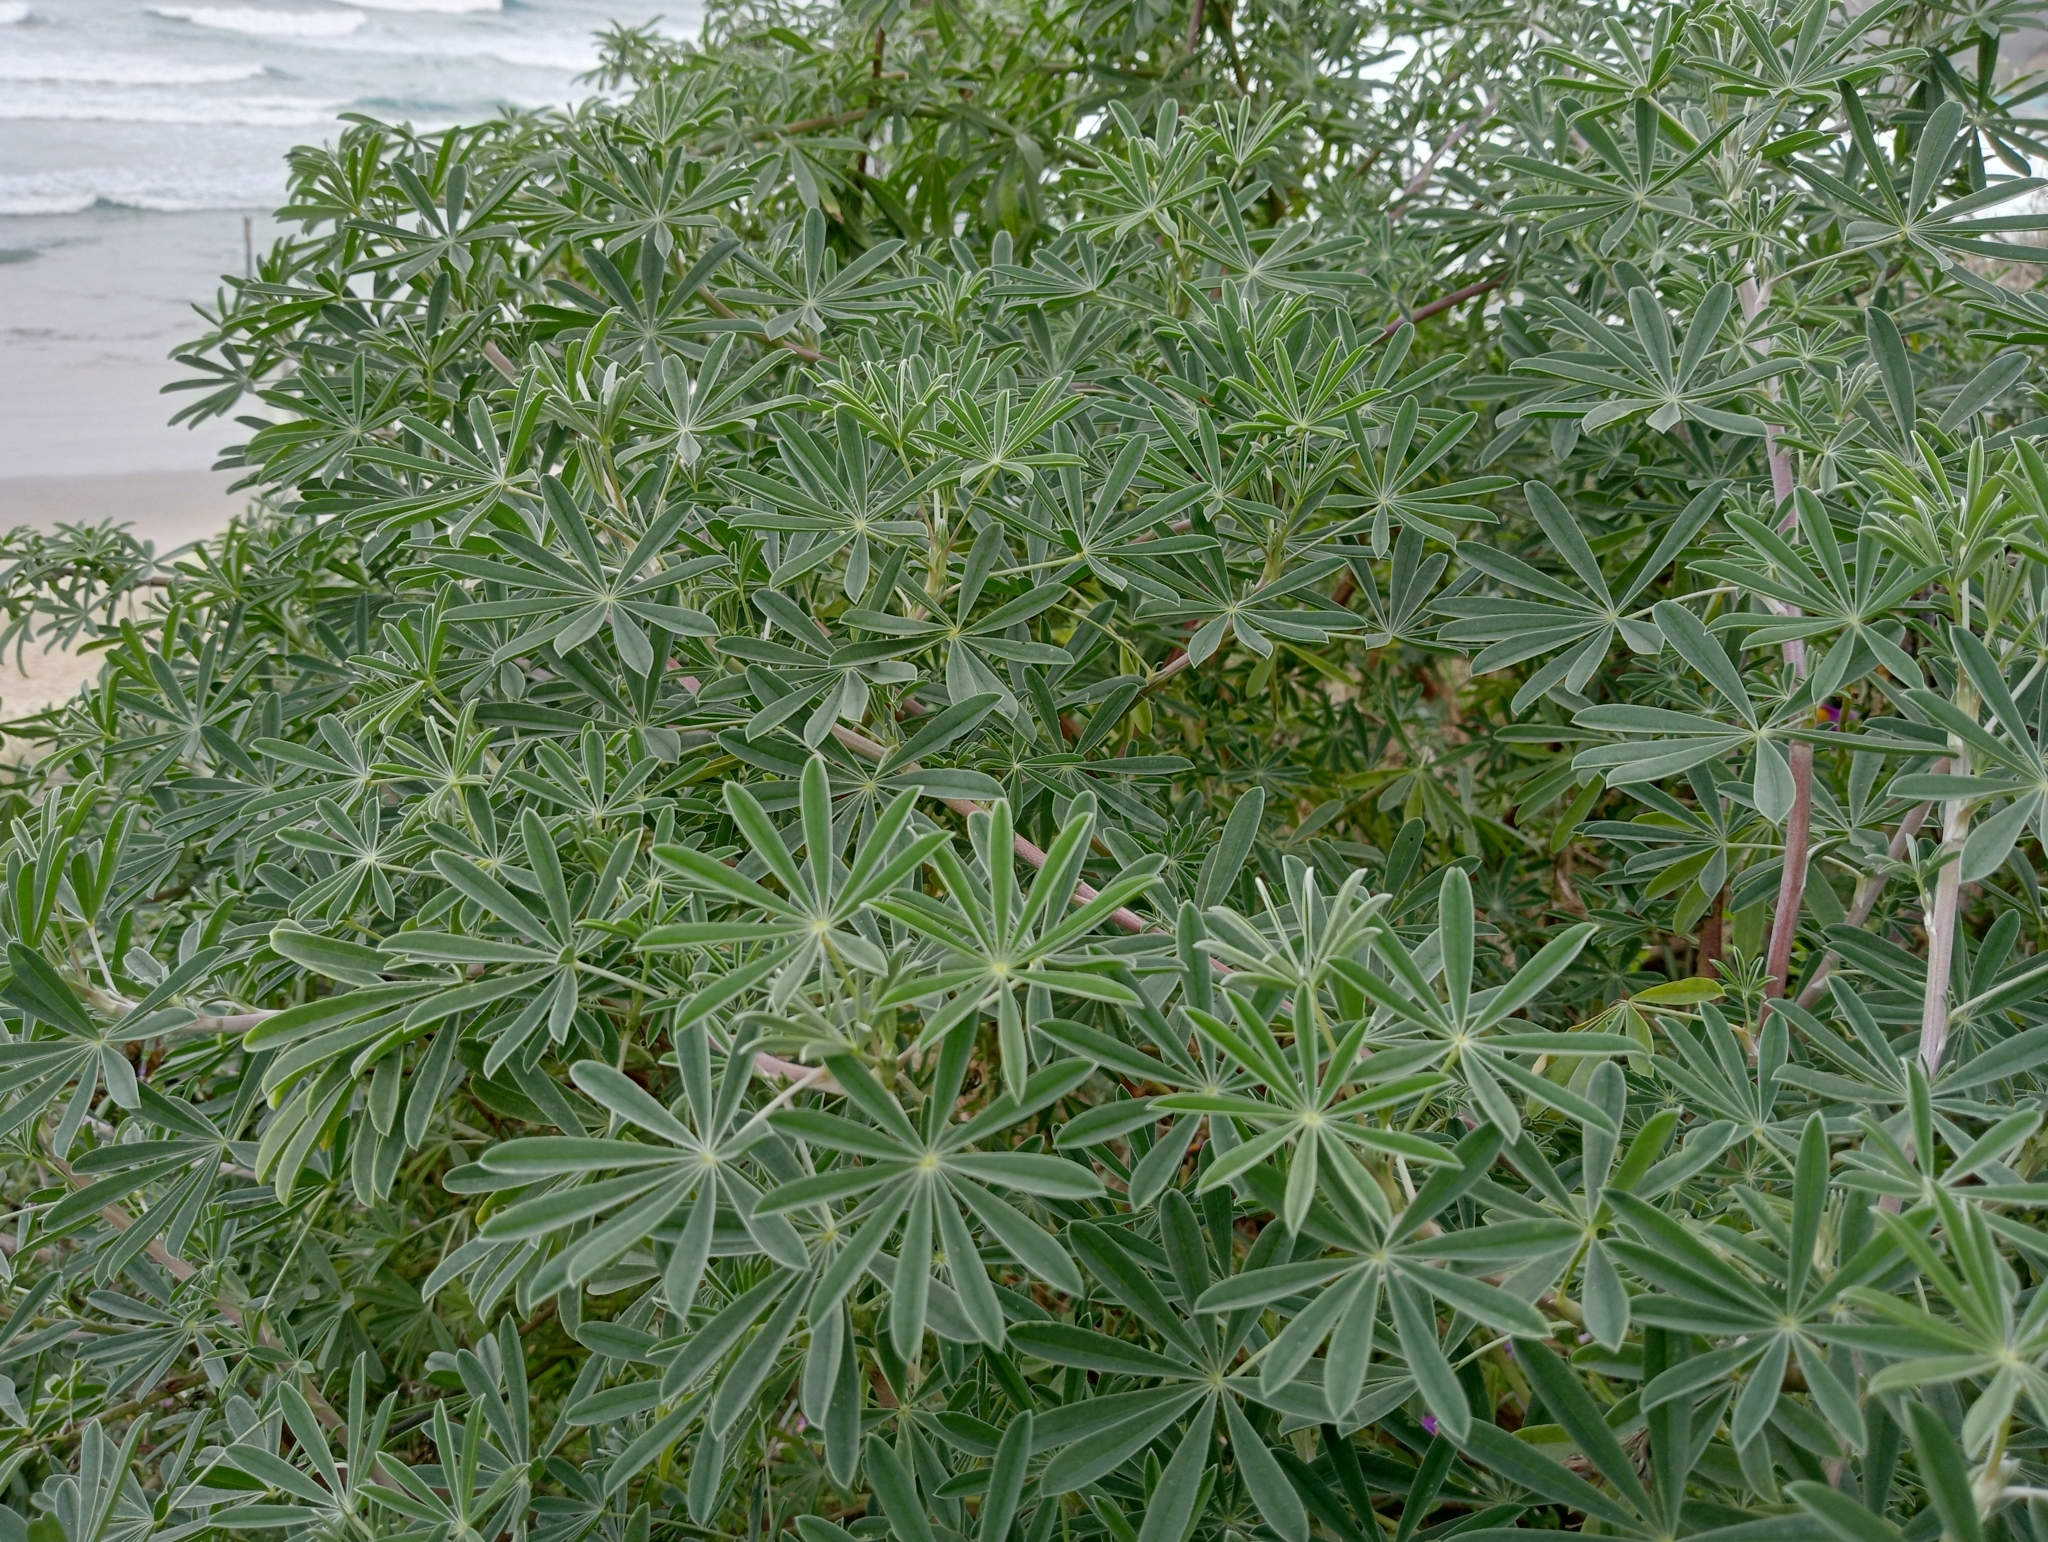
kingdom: Plantae
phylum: Tracheophyta
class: Magnoliopsida
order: Fabales
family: Fabaceae
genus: Lupinus
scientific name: Lupinus arboreus
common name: Yellow bush lupine
